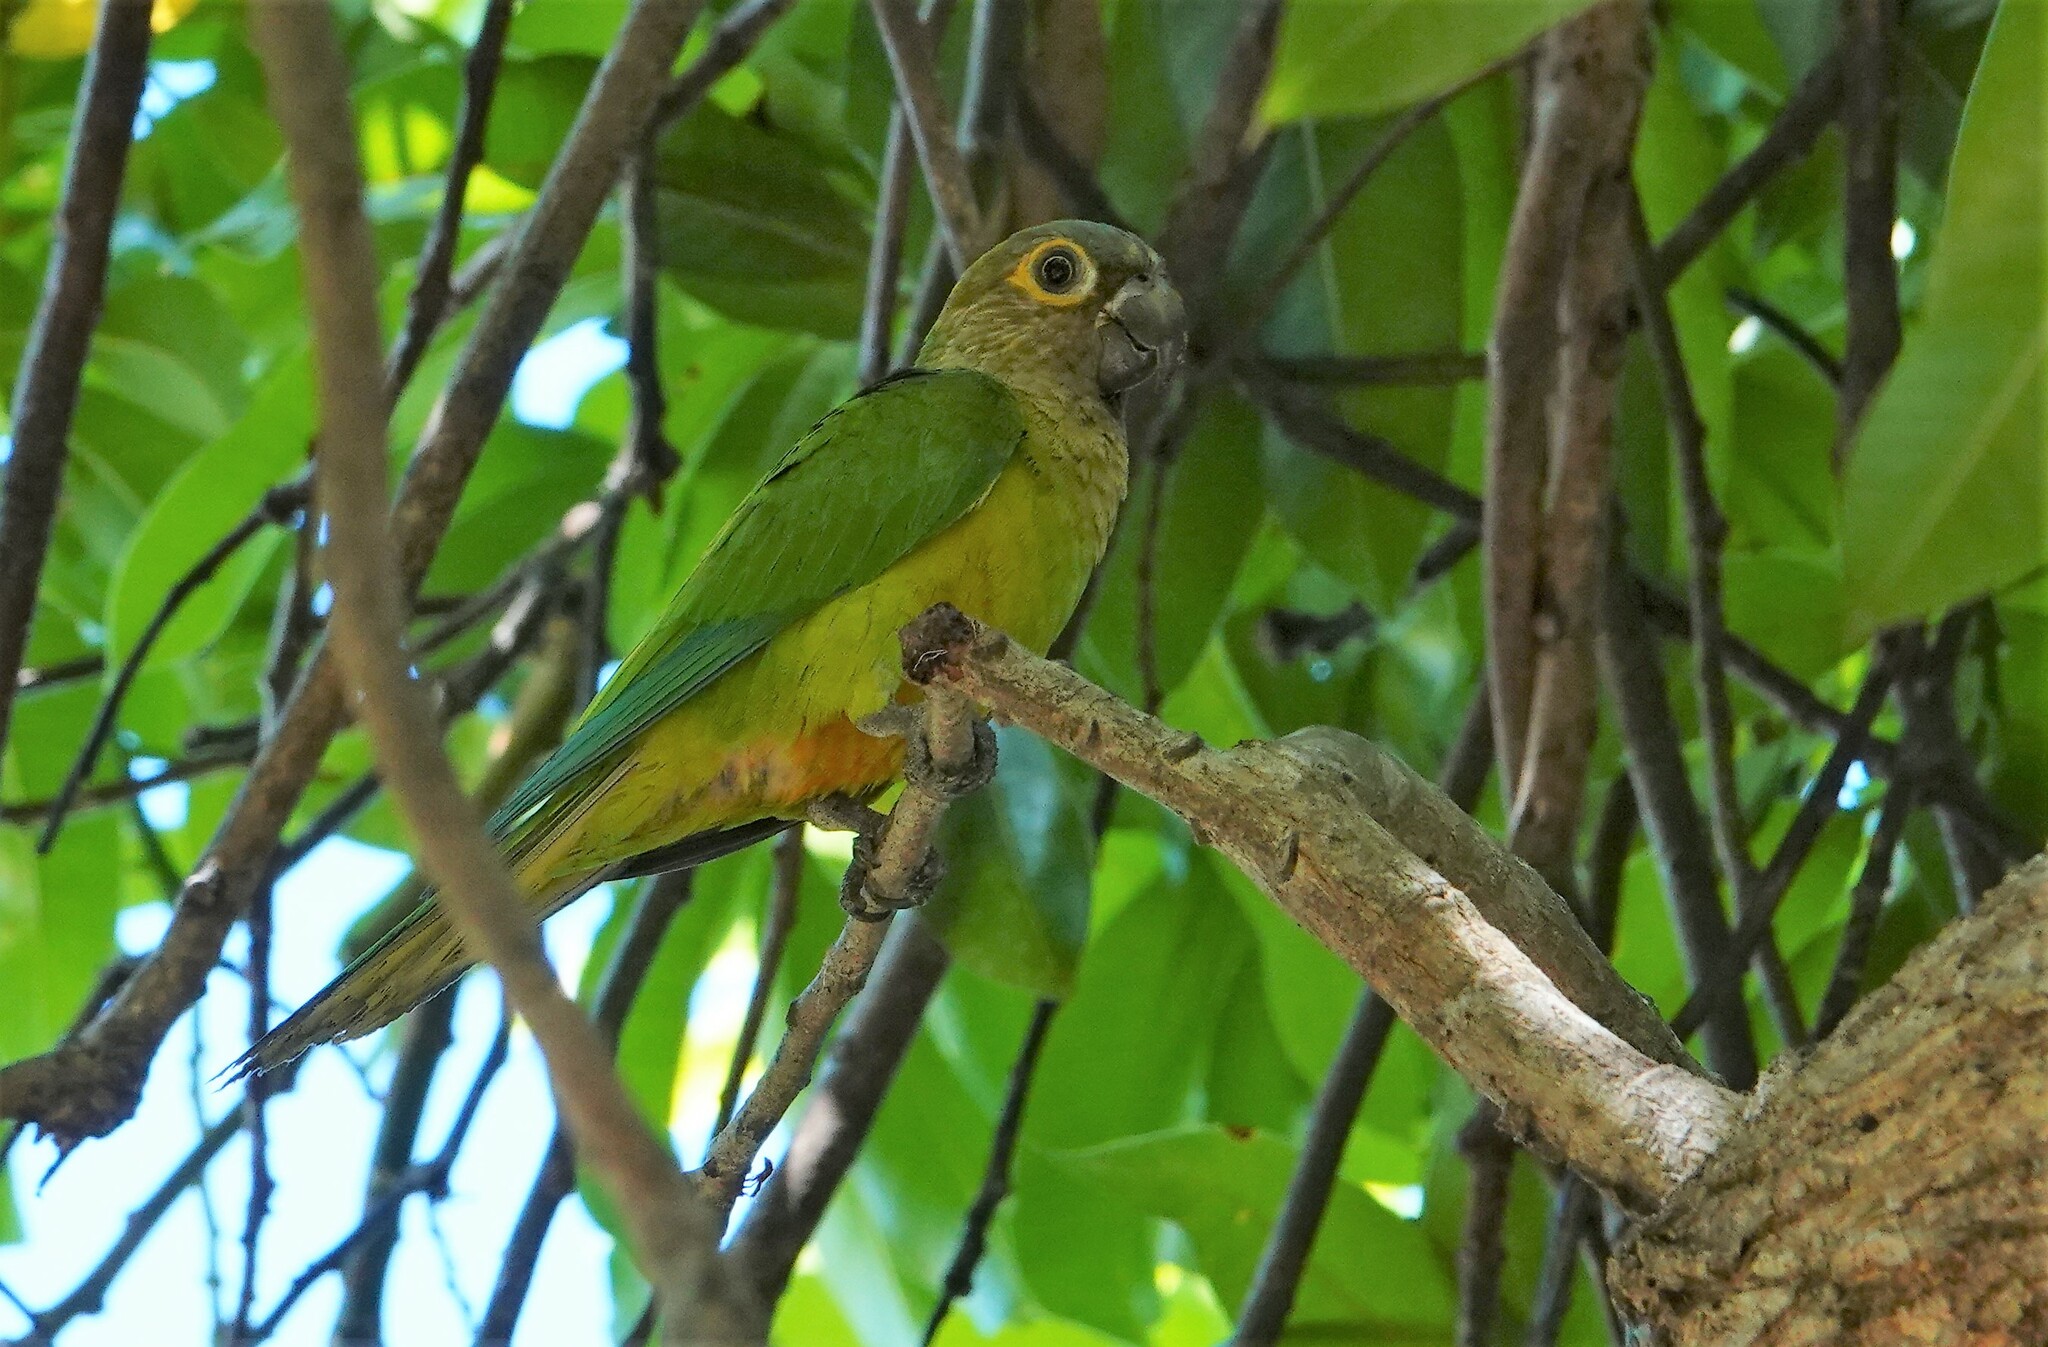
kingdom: Animalia
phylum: Chordata
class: Aves
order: Psittaciformes
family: Psittacidae
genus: Aratinga
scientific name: Aratinga pertinax
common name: Brown-throated parakeet
